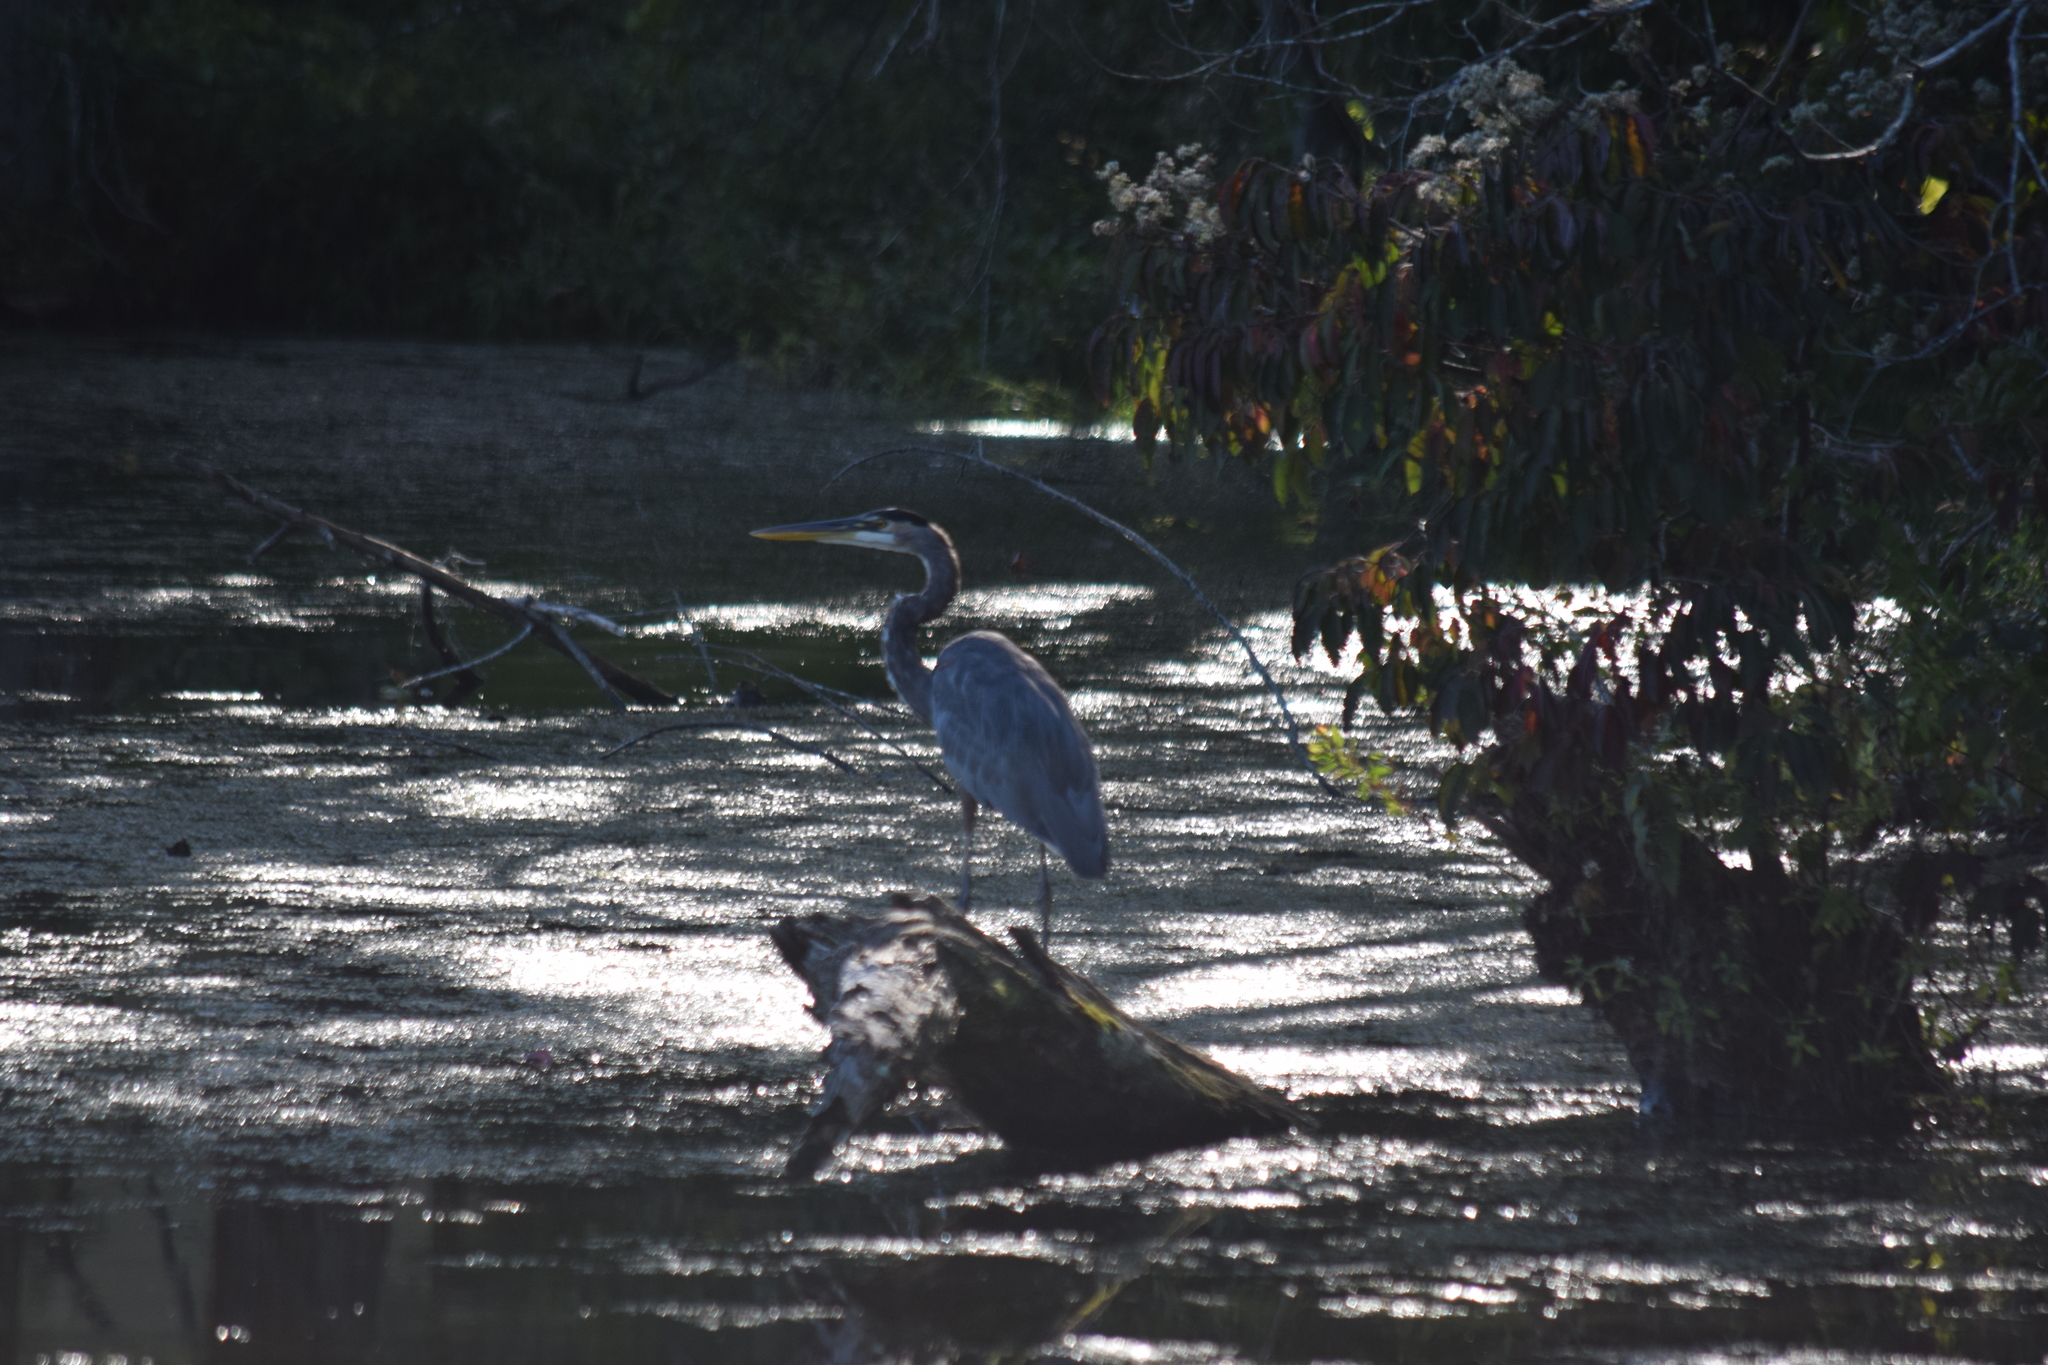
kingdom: Animalia
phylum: Chordata
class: Aves
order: Pelecaniformes
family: Ardeidae
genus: Ardea
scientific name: Ardea herodias
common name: Great blue heron
